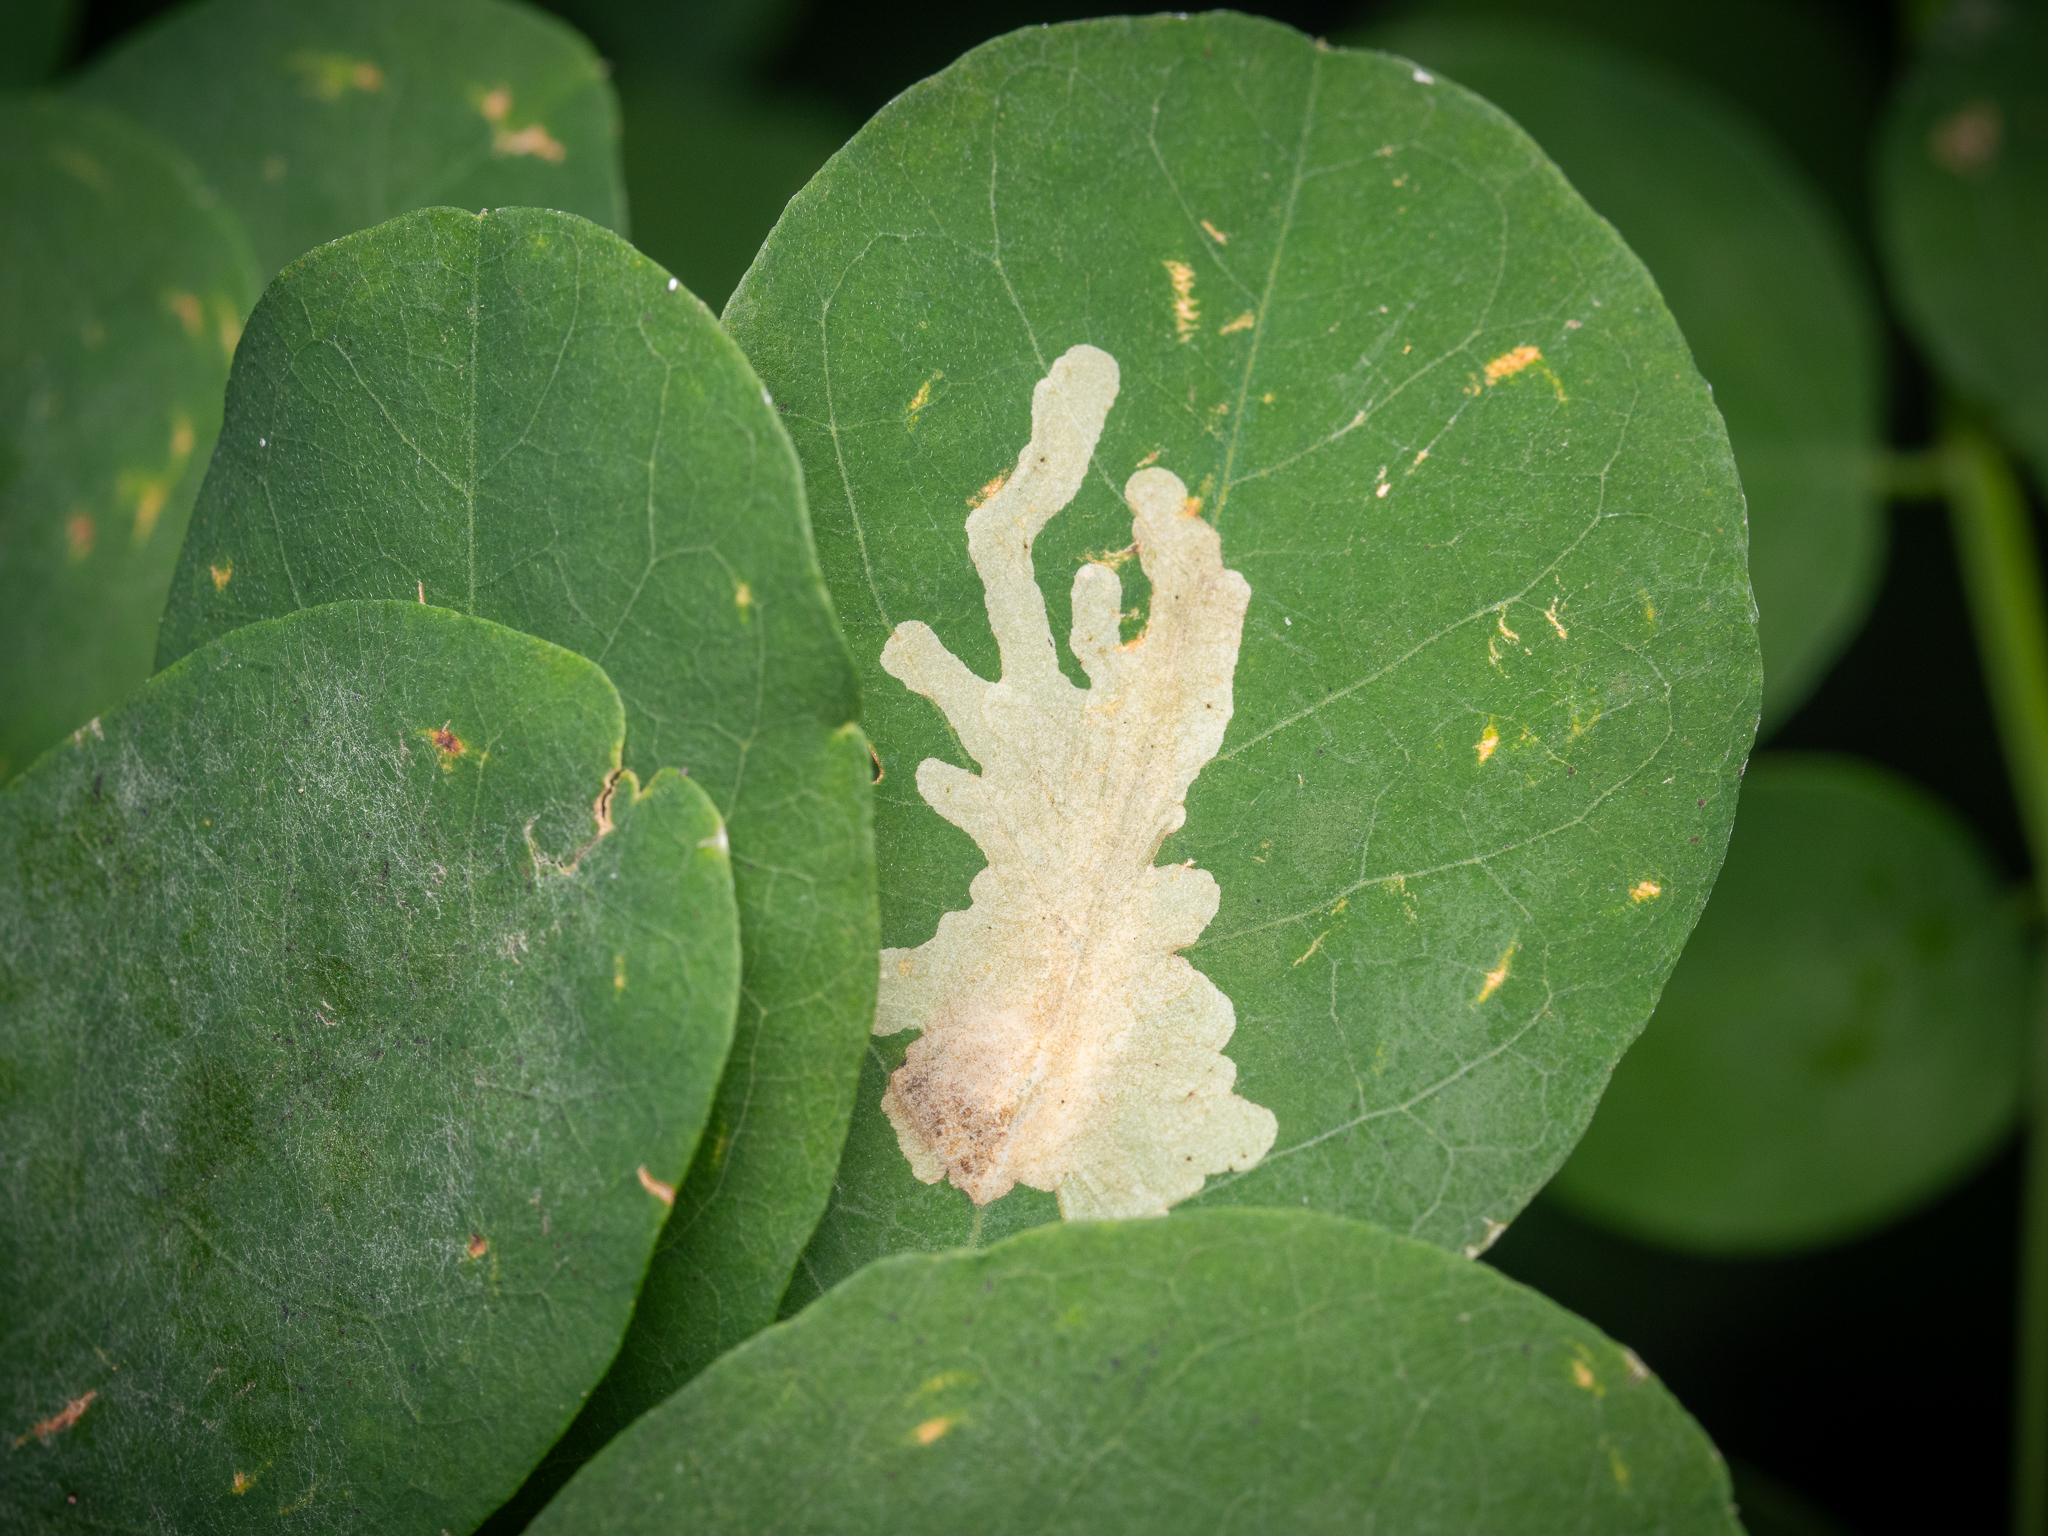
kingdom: Animalia
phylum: Arthropoda
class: Insecta
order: Lepidoptera
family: Gracillariidae
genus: Parectopa
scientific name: Parectopa robiniella
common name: Locust digitate leafminer
